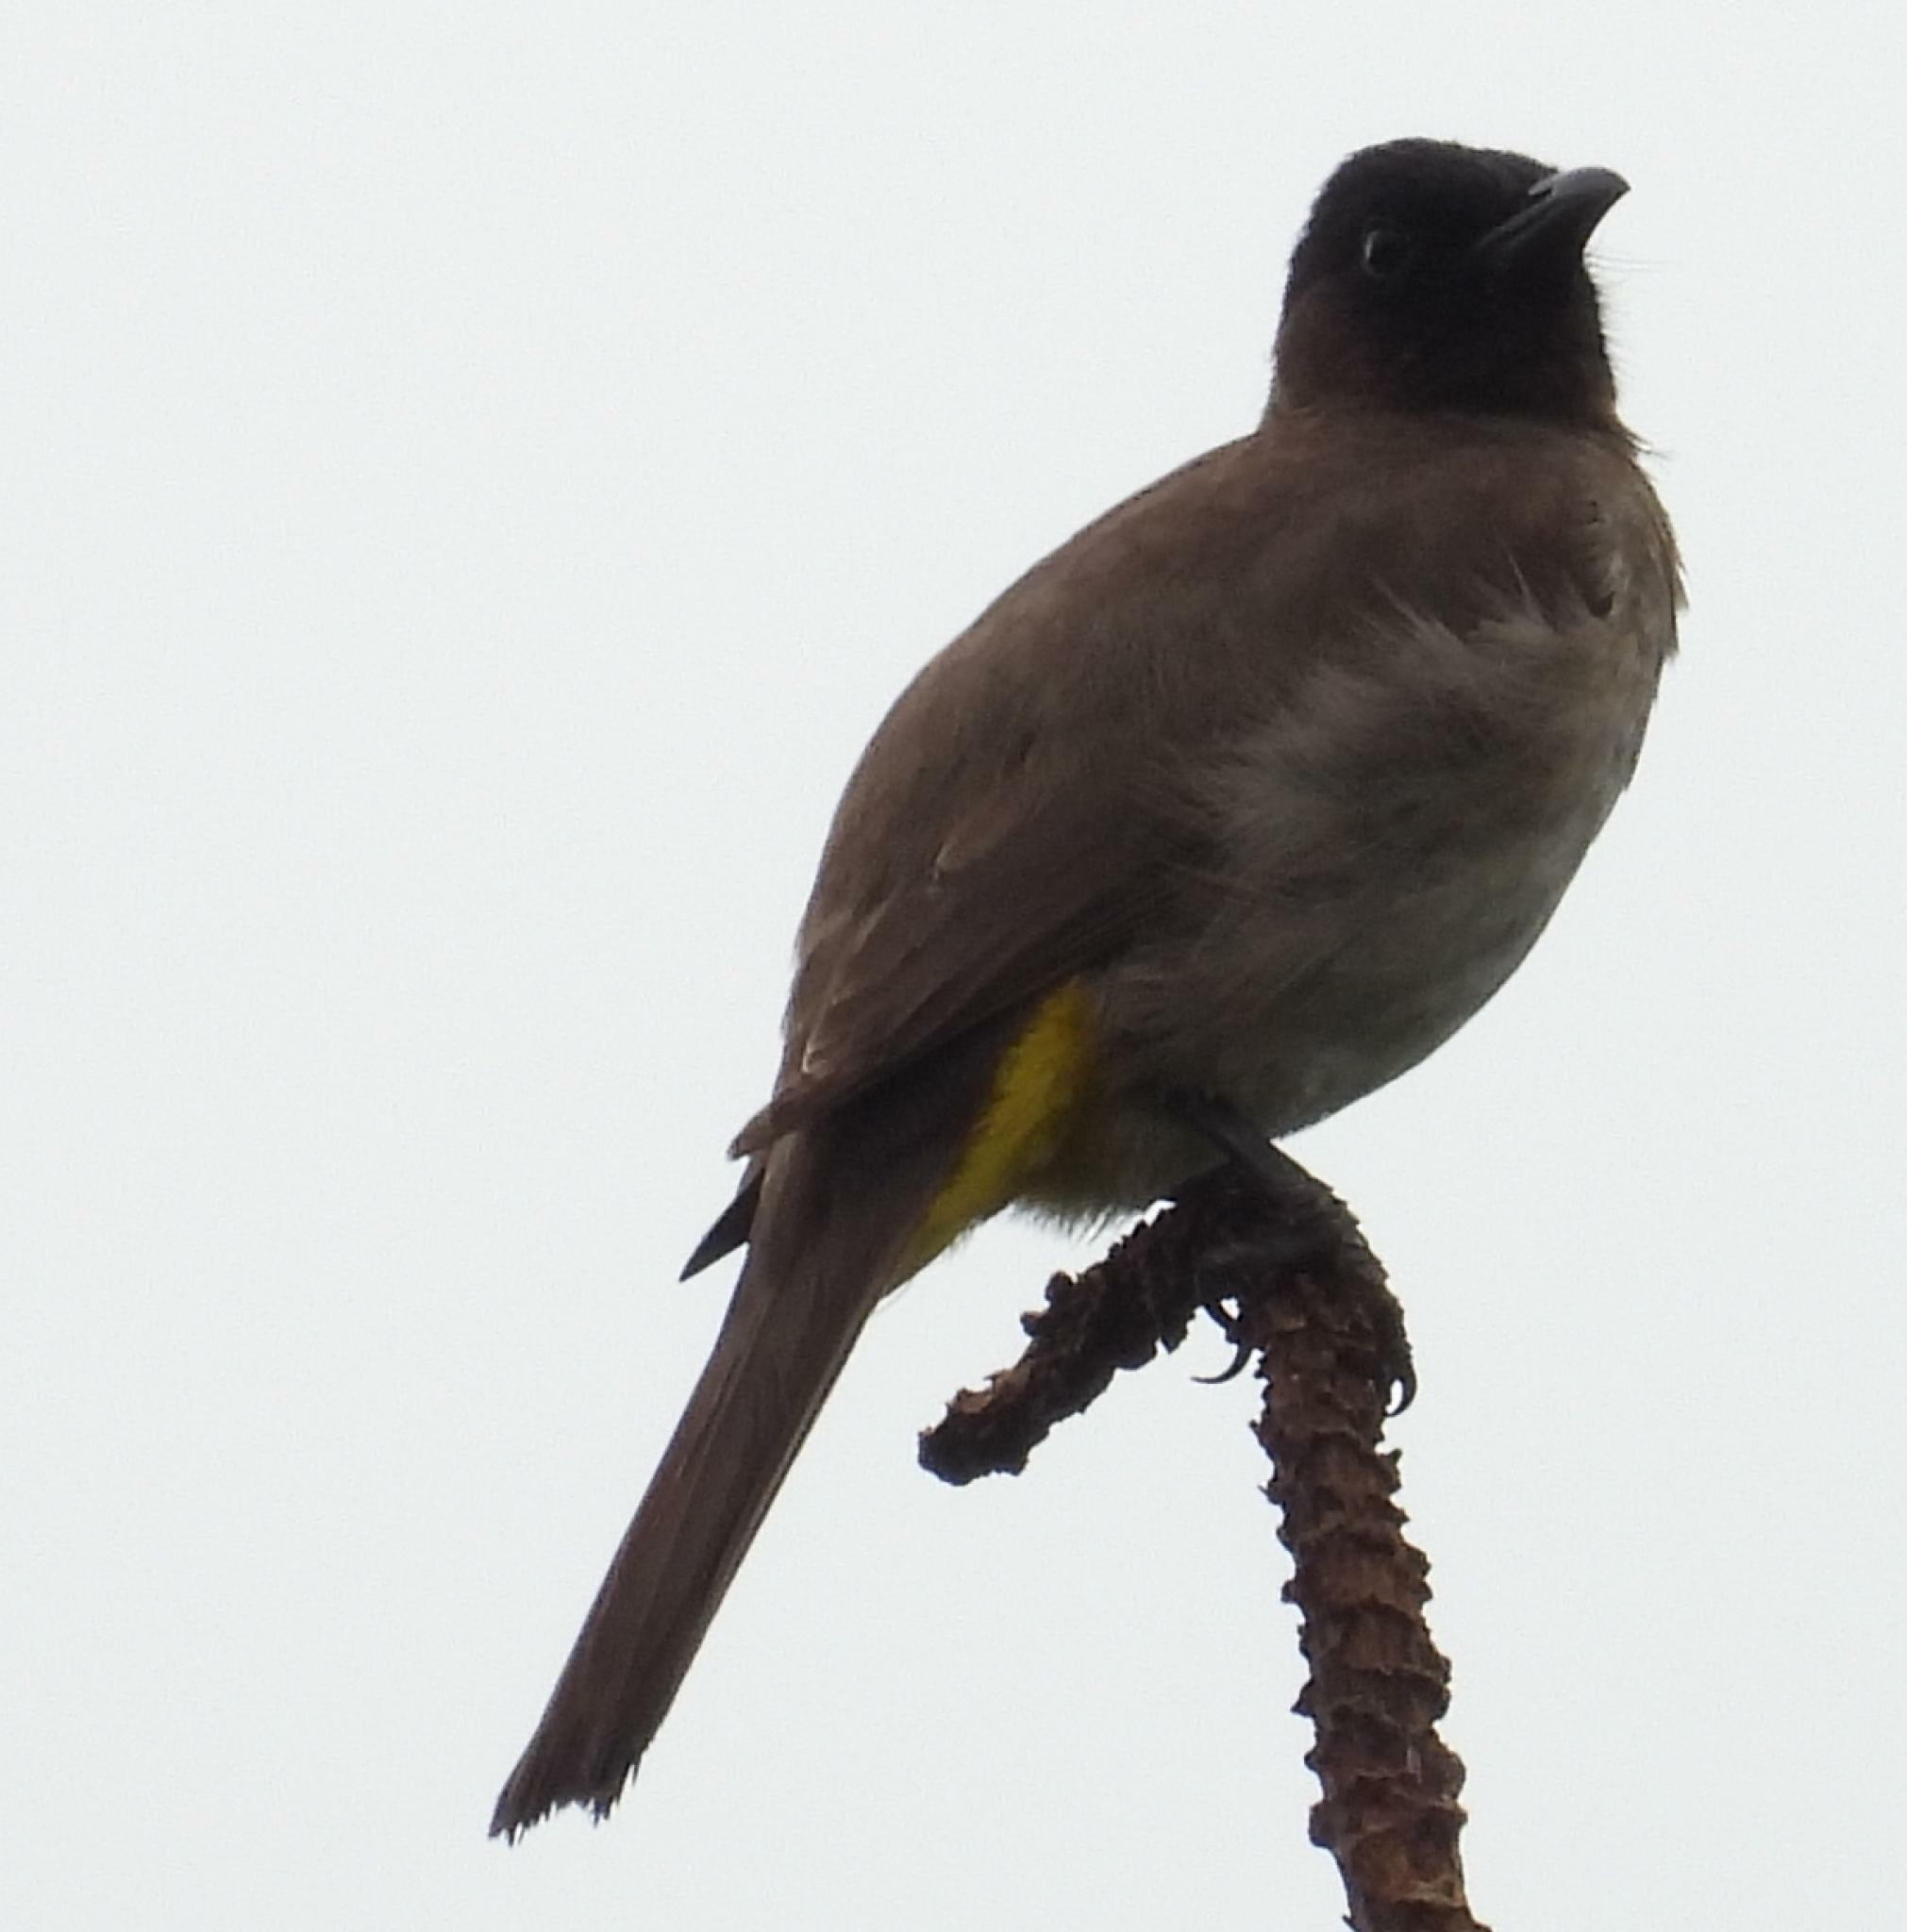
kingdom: Animalia
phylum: Chordata
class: Aves
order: Passeriformes
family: Pycnonotidae
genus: Pycnonotus
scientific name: Pycnonotus barbatus
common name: Common bulbul
